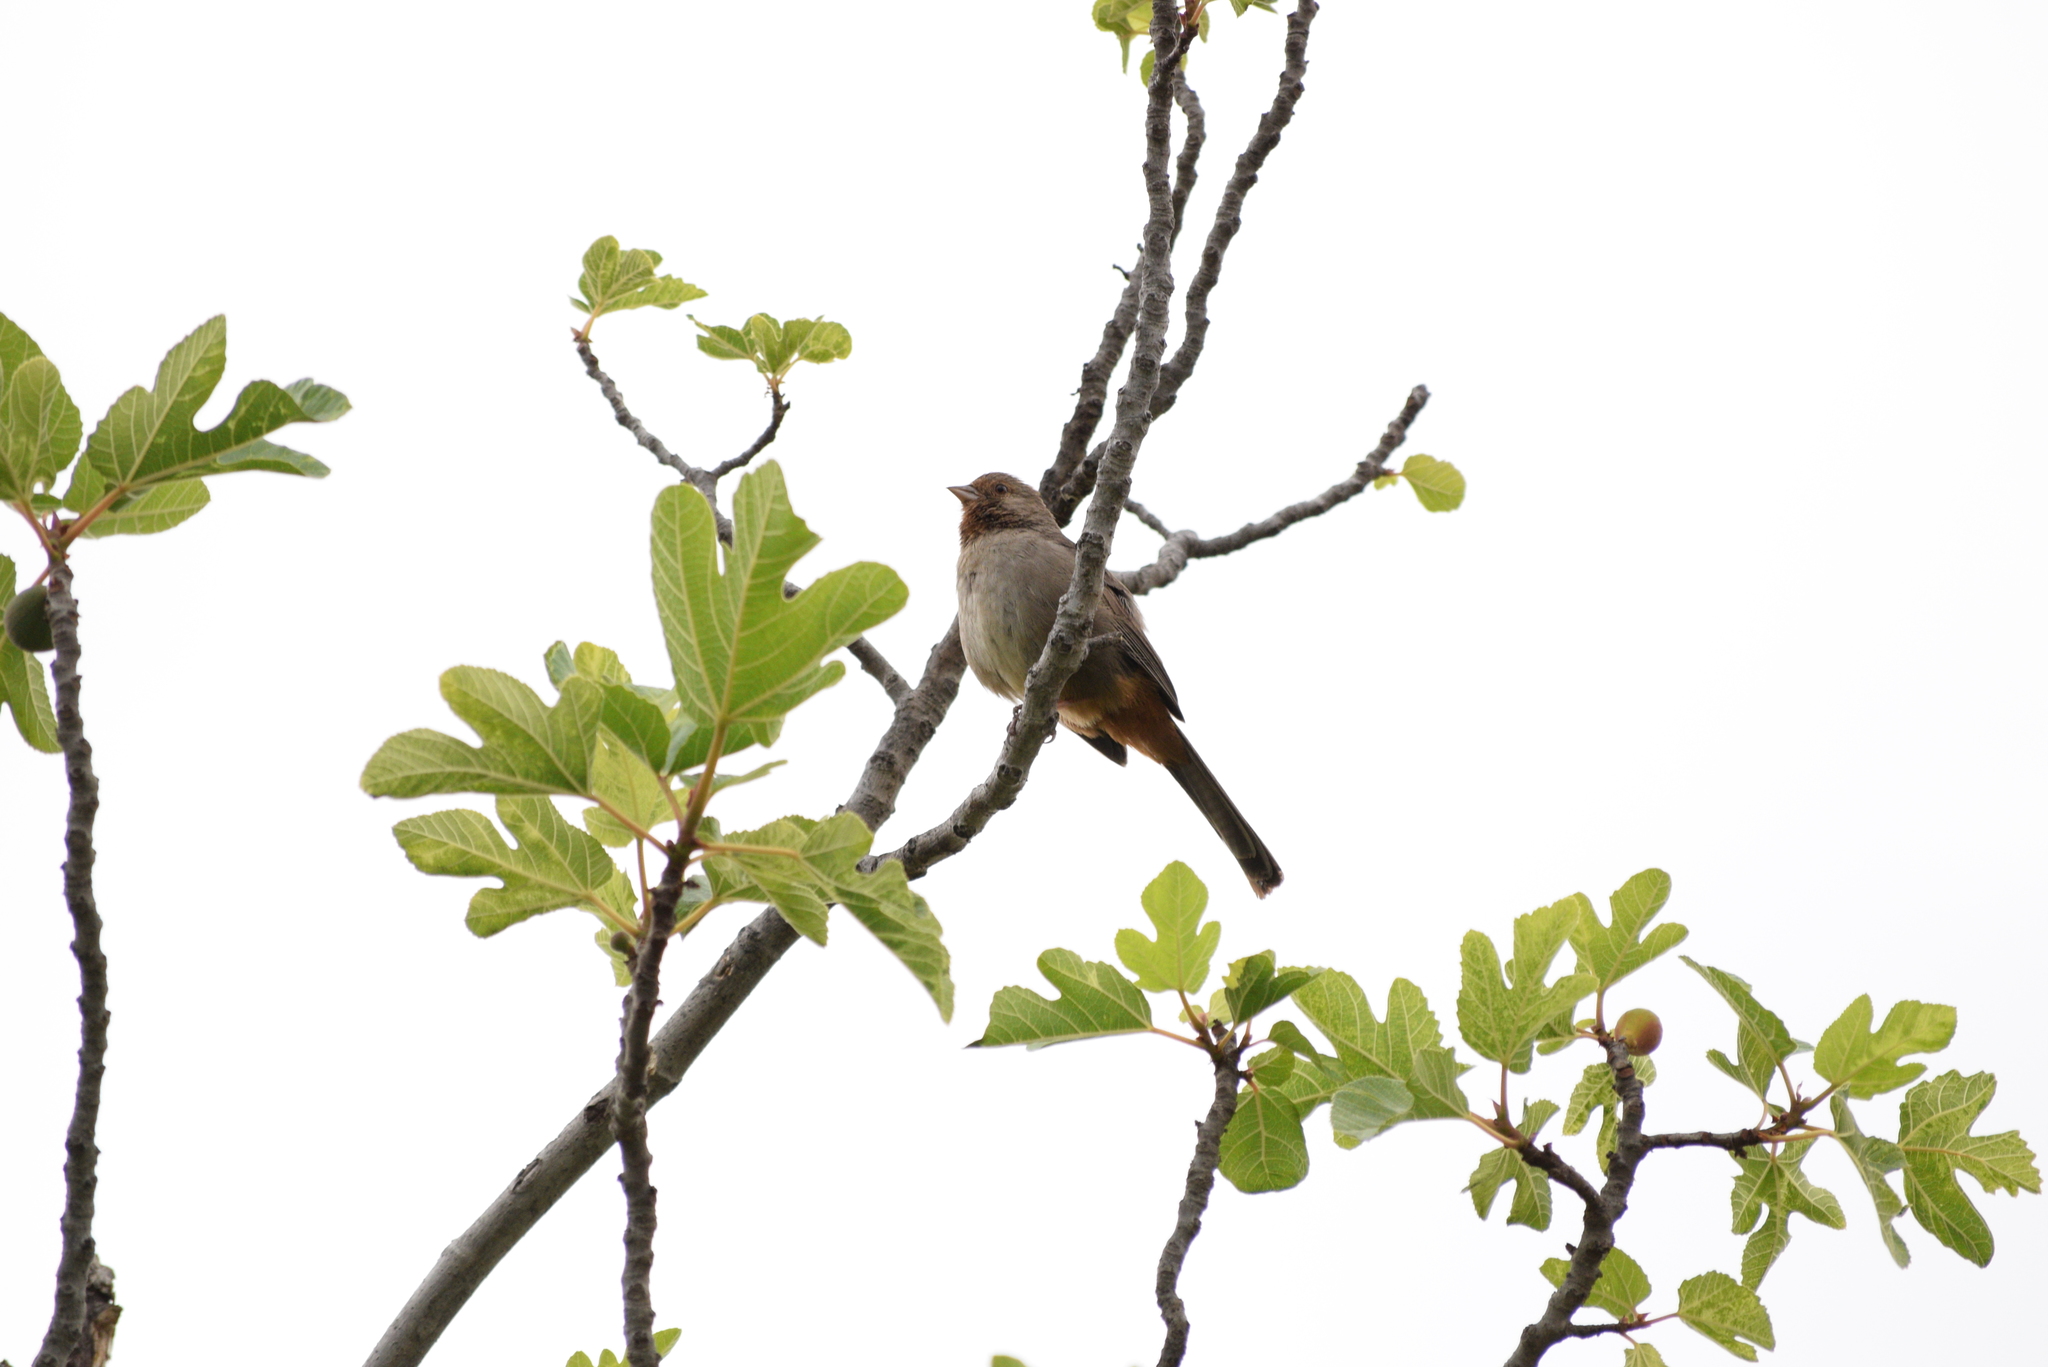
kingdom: Animalia
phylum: Chordata
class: Aves
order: Passeriformes
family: Passerellidae
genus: Melozone
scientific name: Melozone crissalis
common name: California towhee
